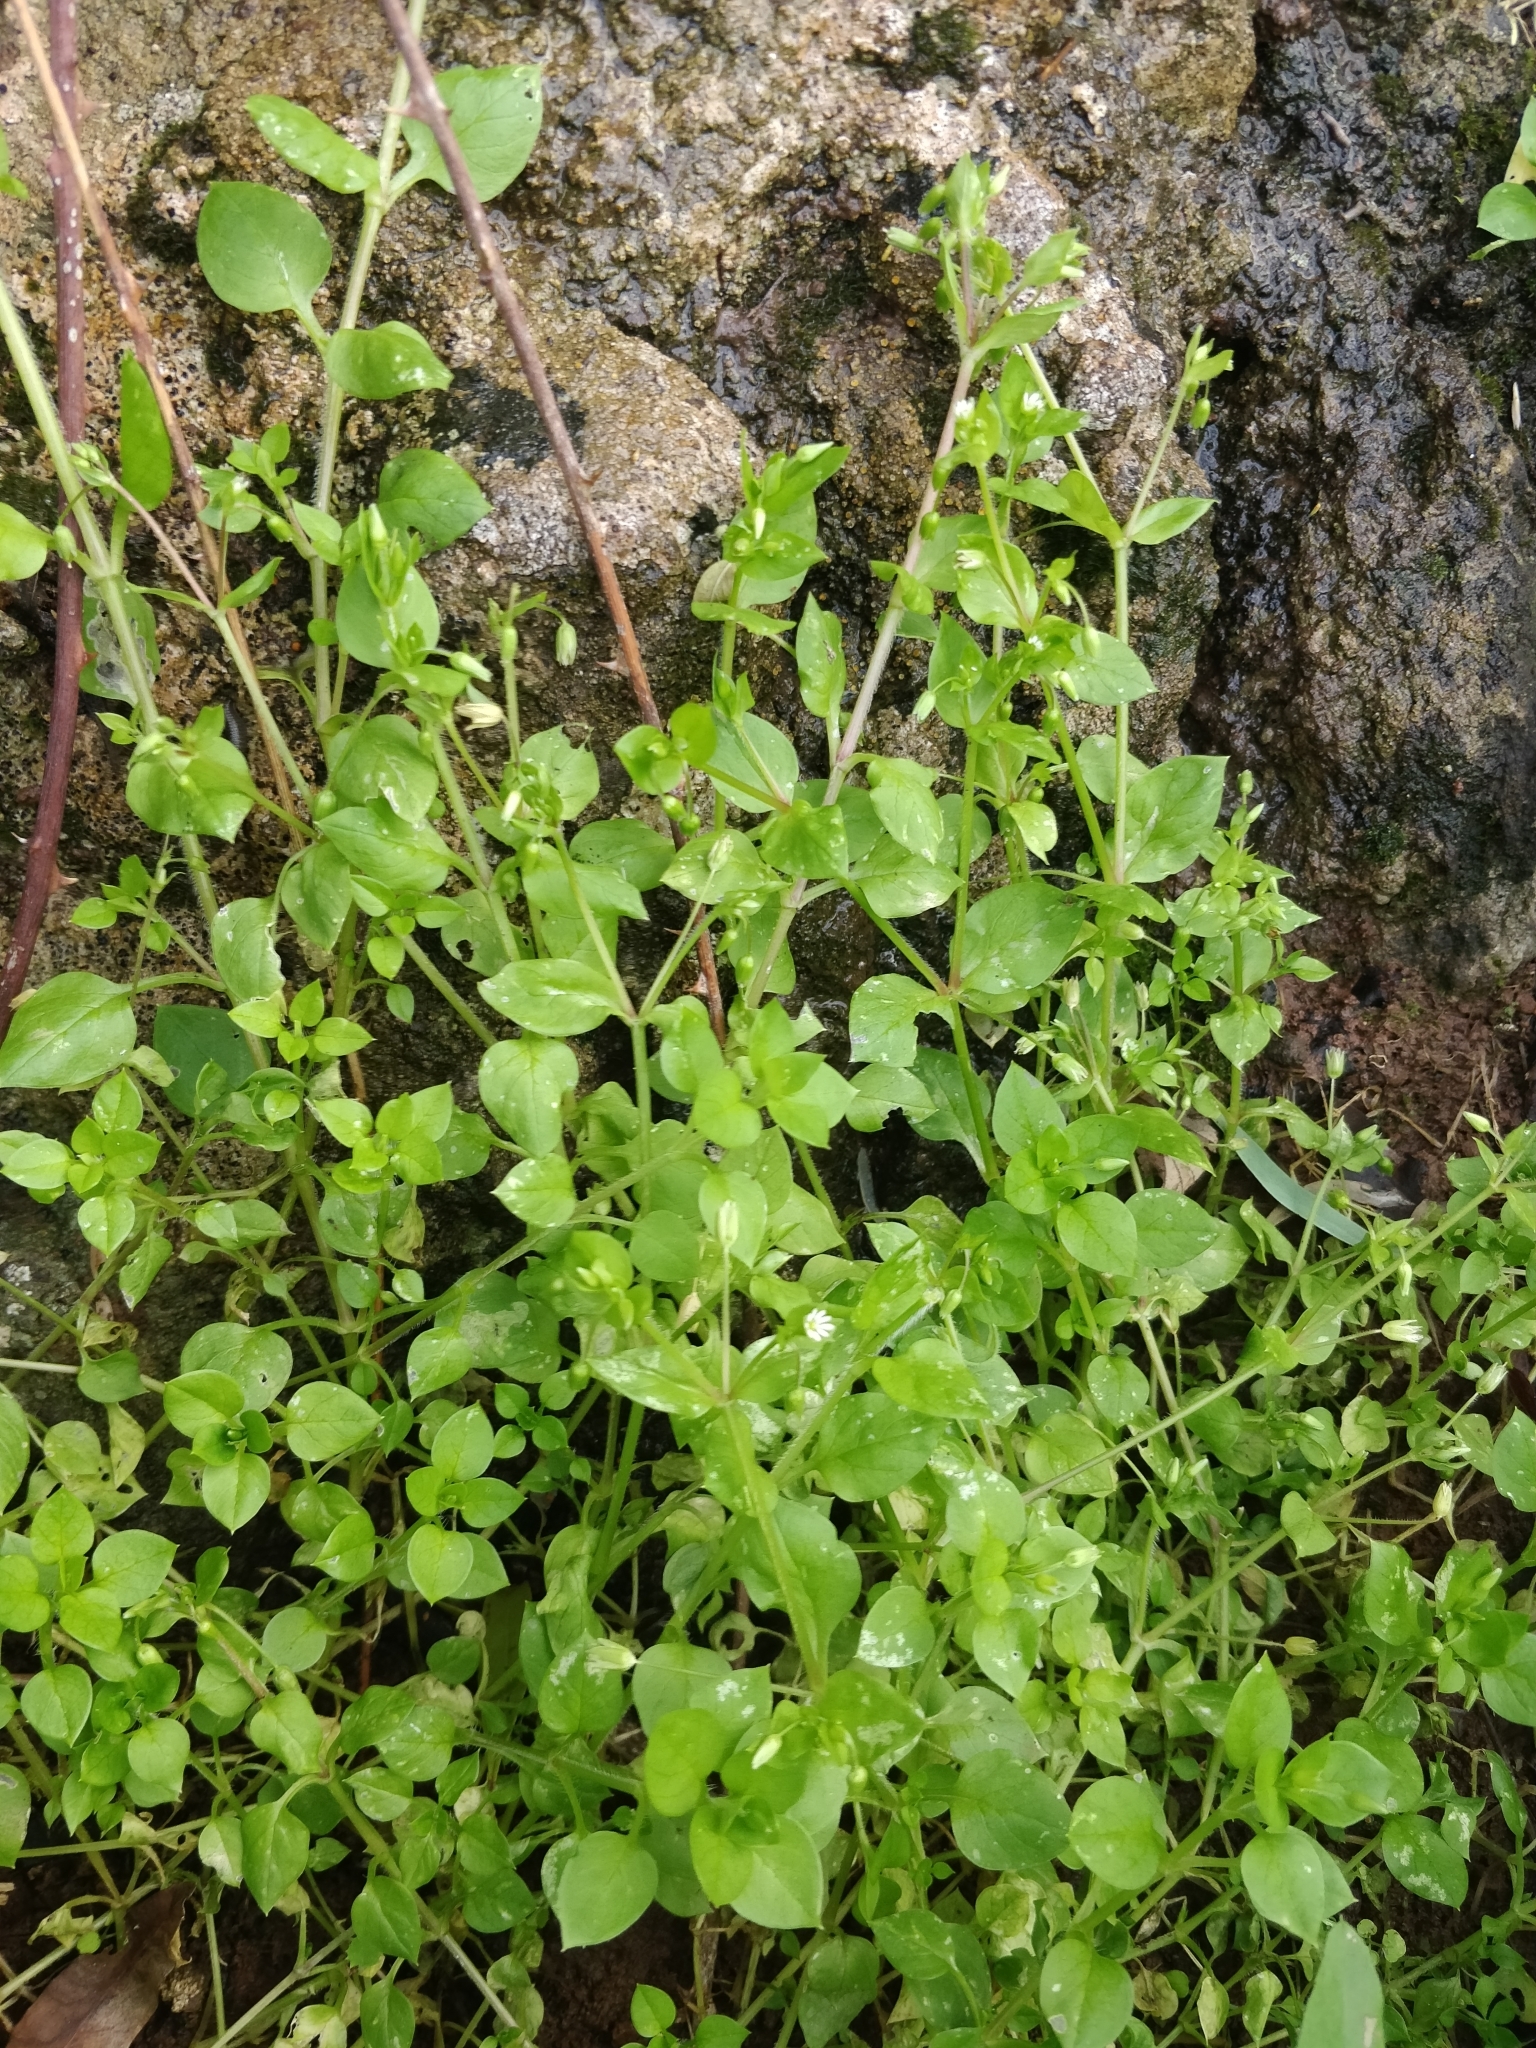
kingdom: Plantae
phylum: Tracheophyta
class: Magnoliopsida
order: Caryophyllales
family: Caryophyllaceae
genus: Stellaria
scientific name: Stellaria media
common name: Common chickweed
